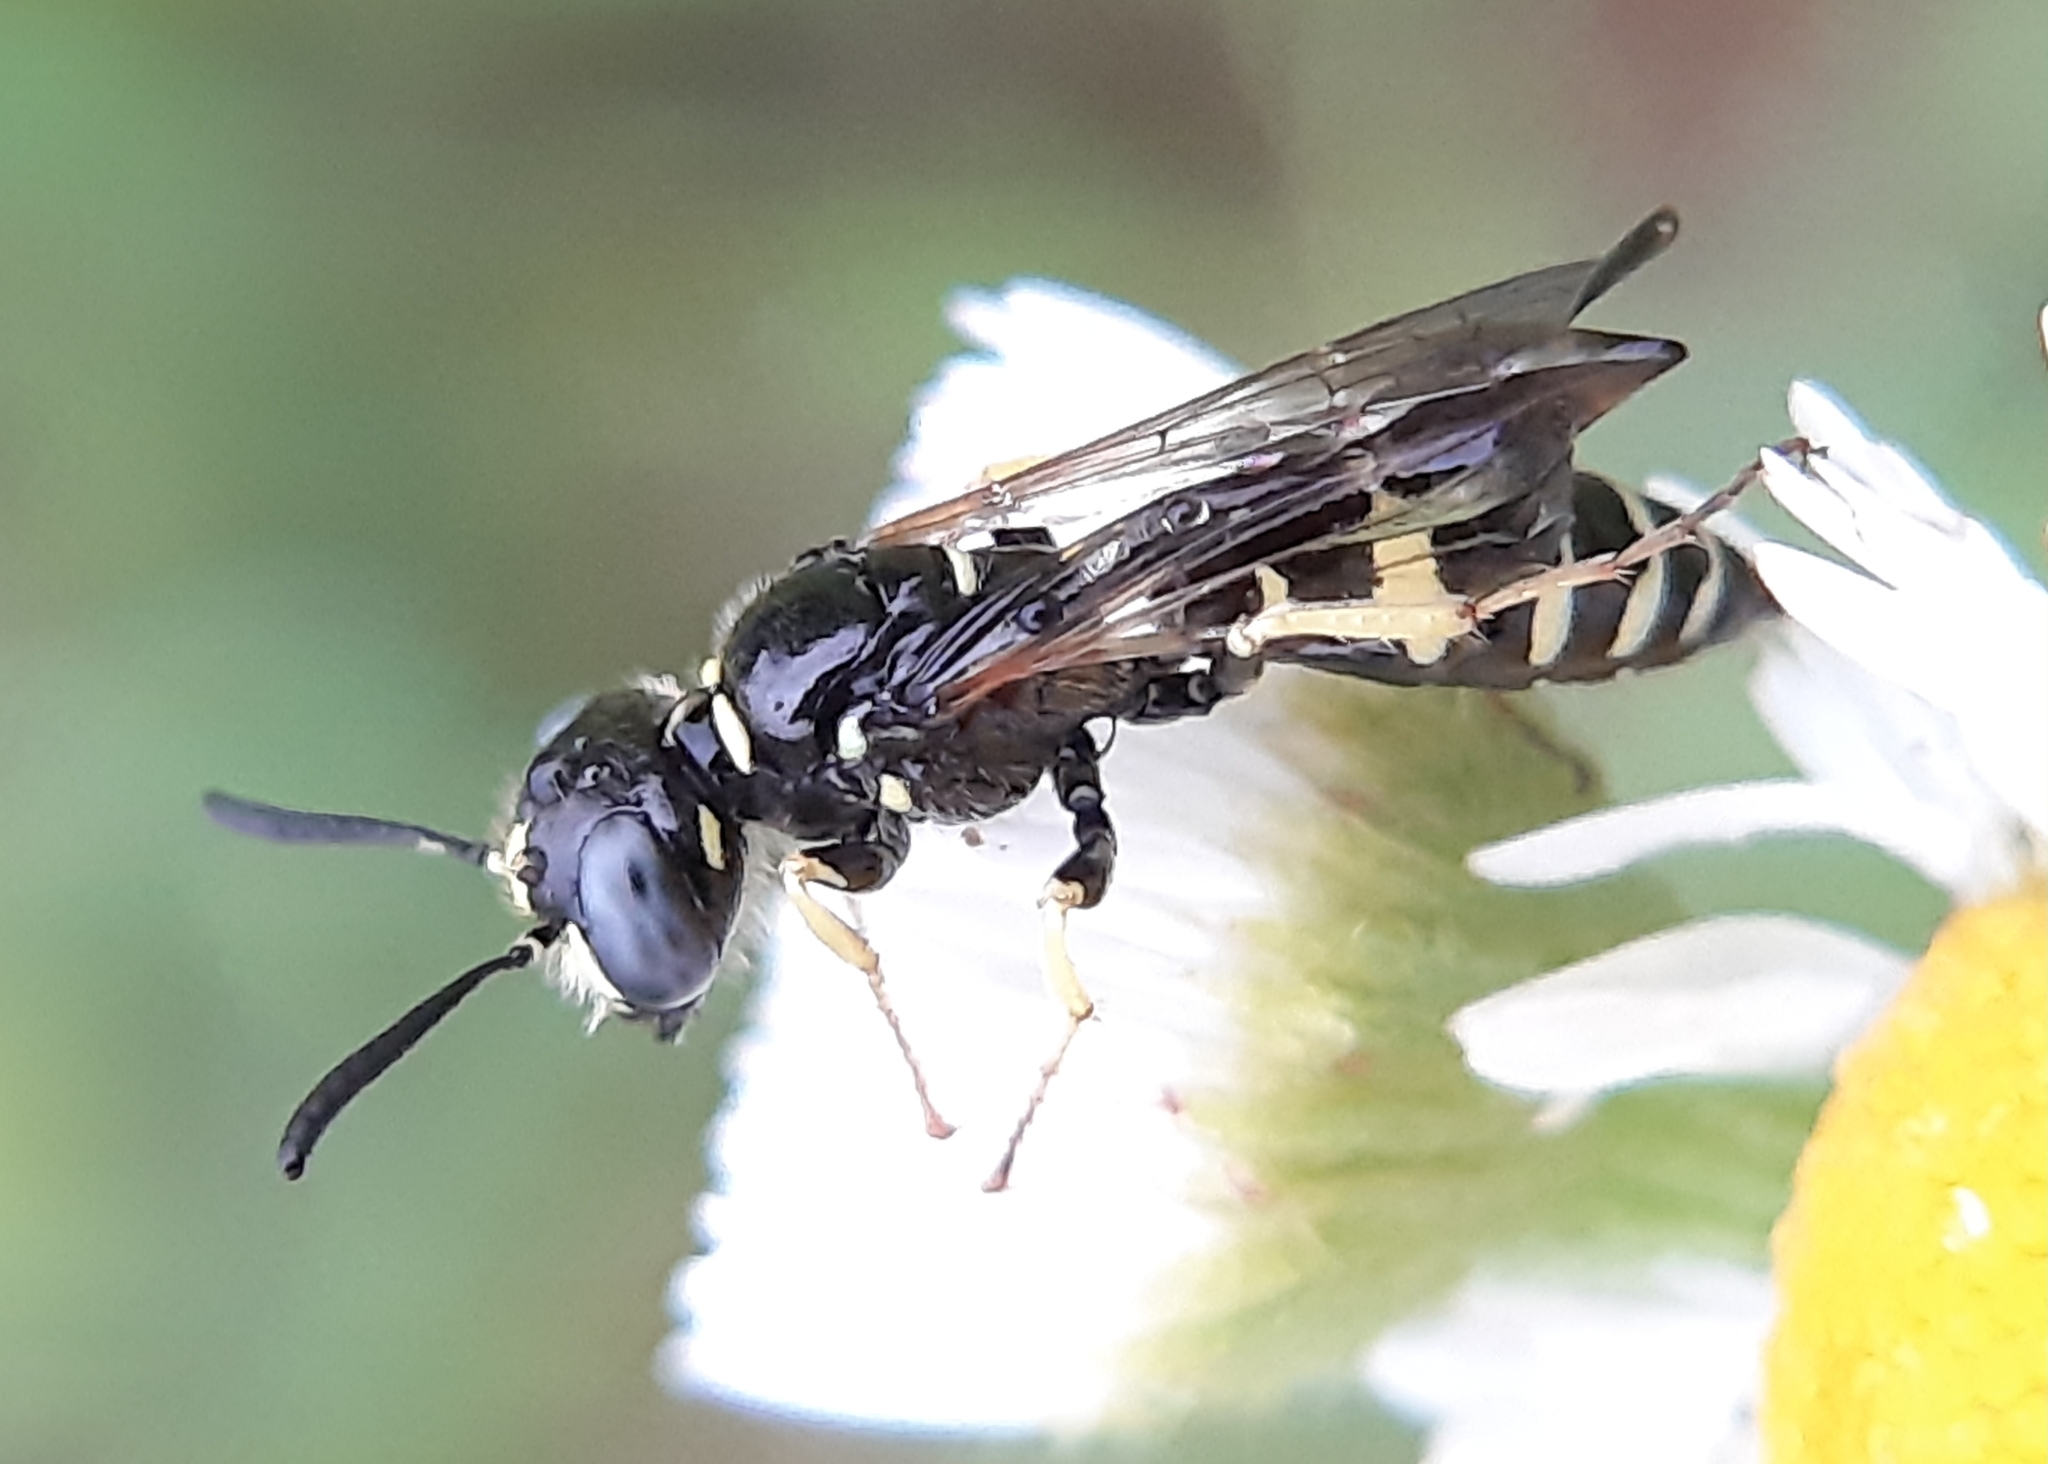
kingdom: Animalia
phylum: Arthropoda
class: Insecta
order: Hymenoptera
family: Crabronidae
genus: Philanthus
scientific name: Philanthus bilunatus
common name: Two moons beewolf
